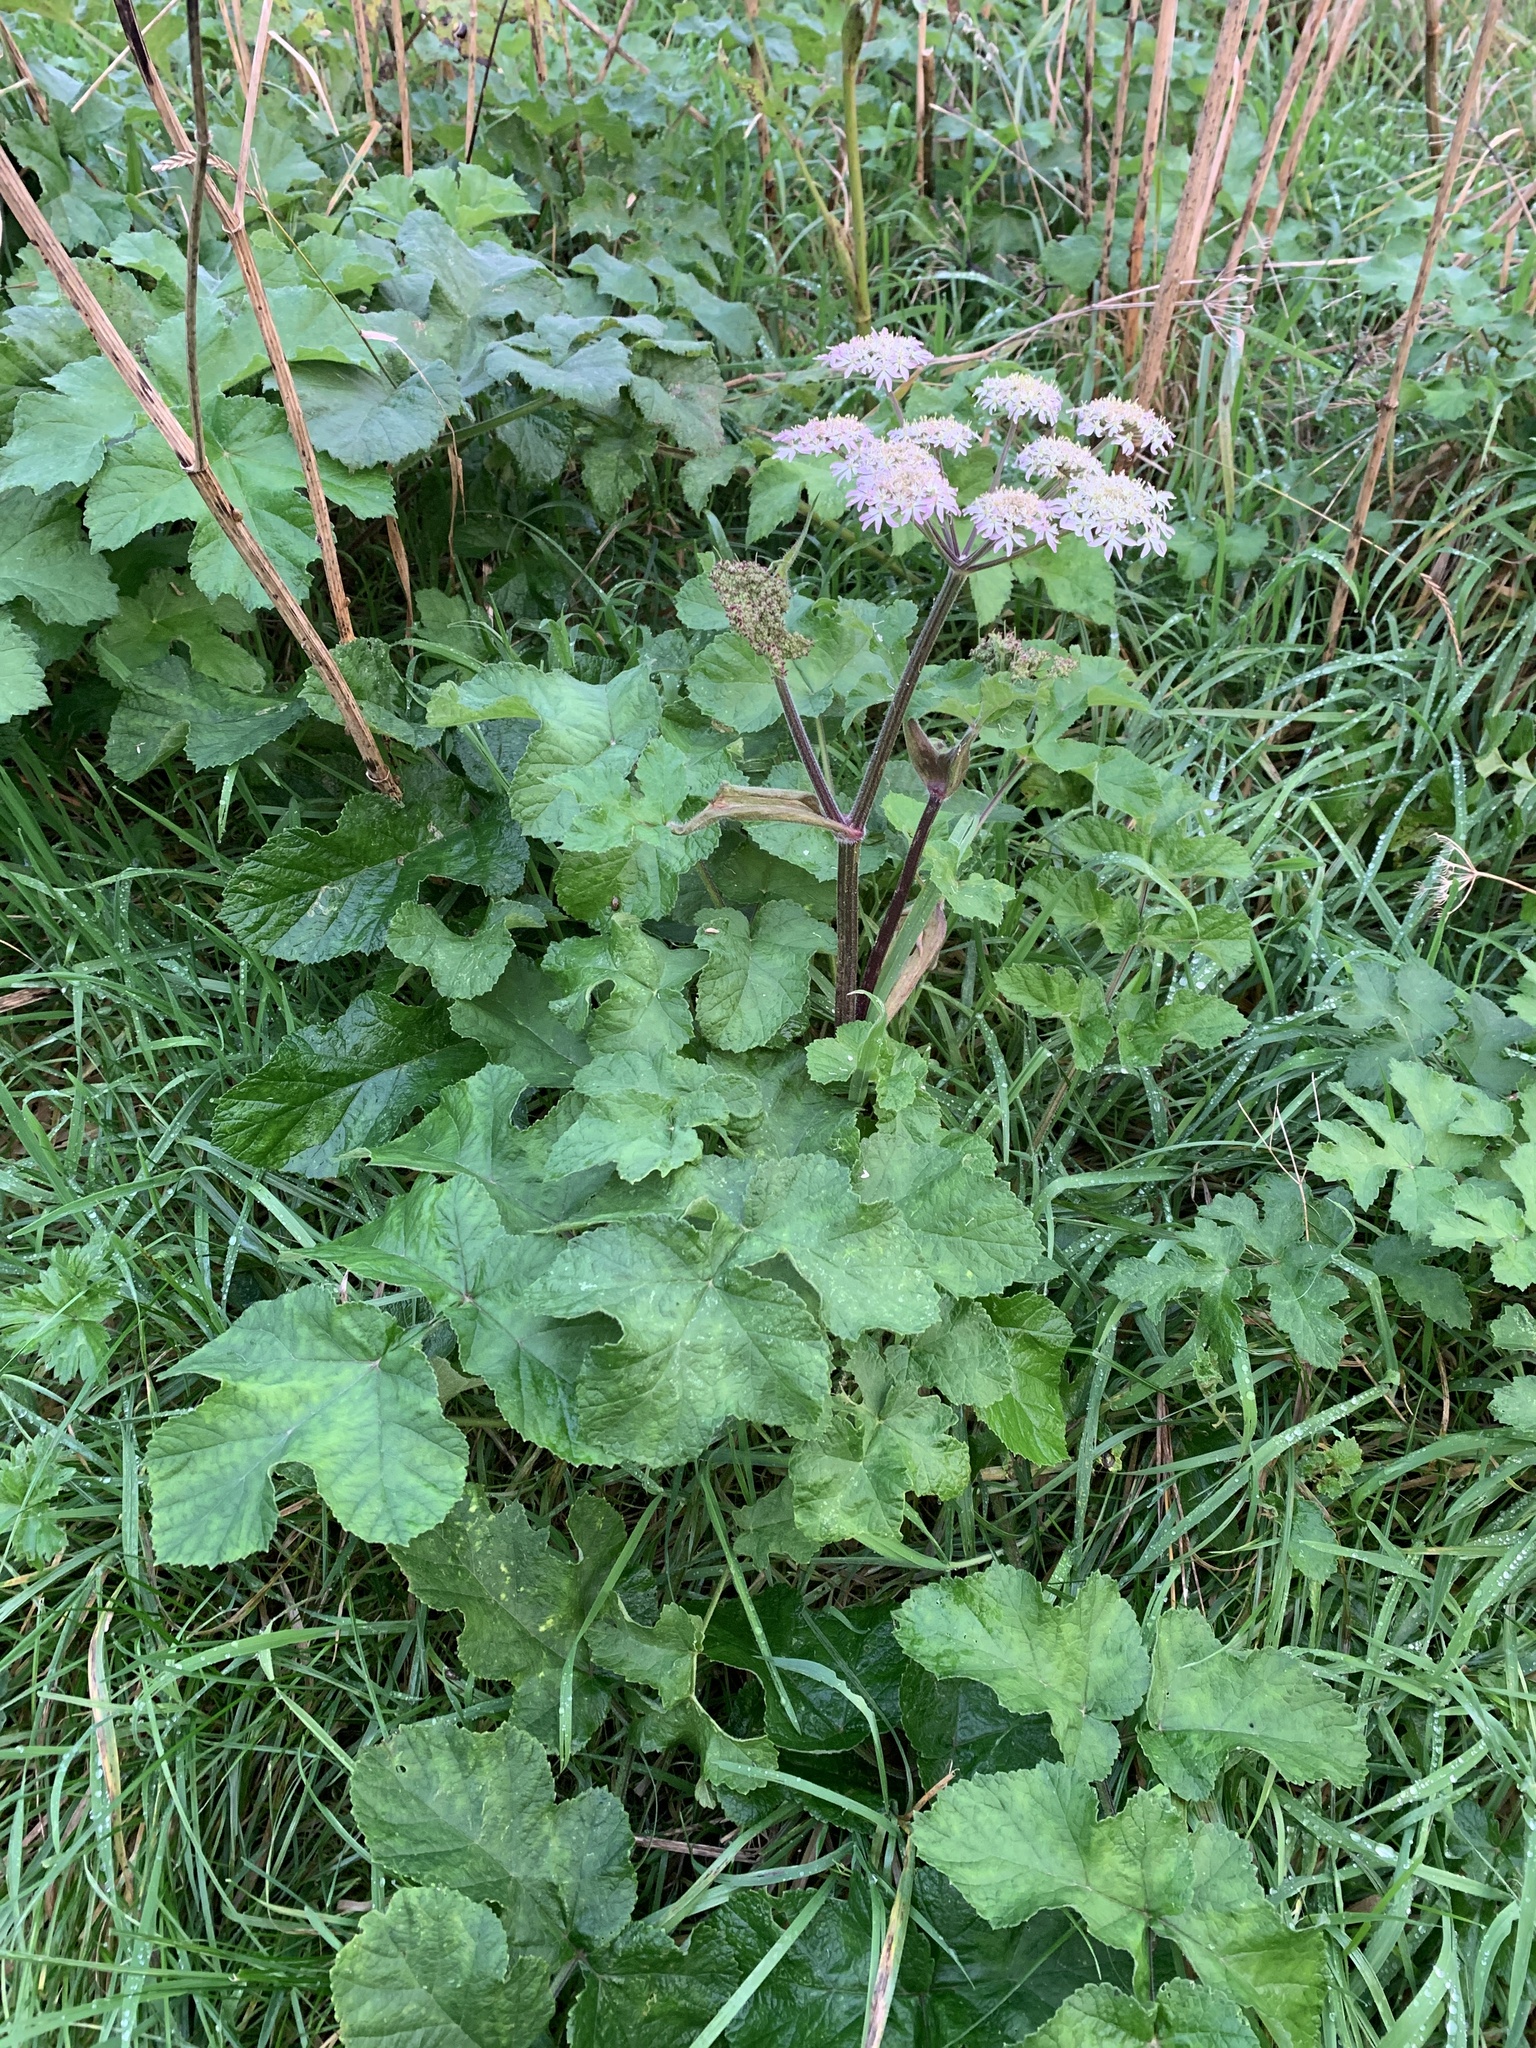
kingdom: Plantae
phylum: Tracheophyta
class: Magnoliopsida
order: Apiales
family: Apiaceae
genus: Heracleum
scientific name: Heracleum sphondylium
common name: Hogweed
